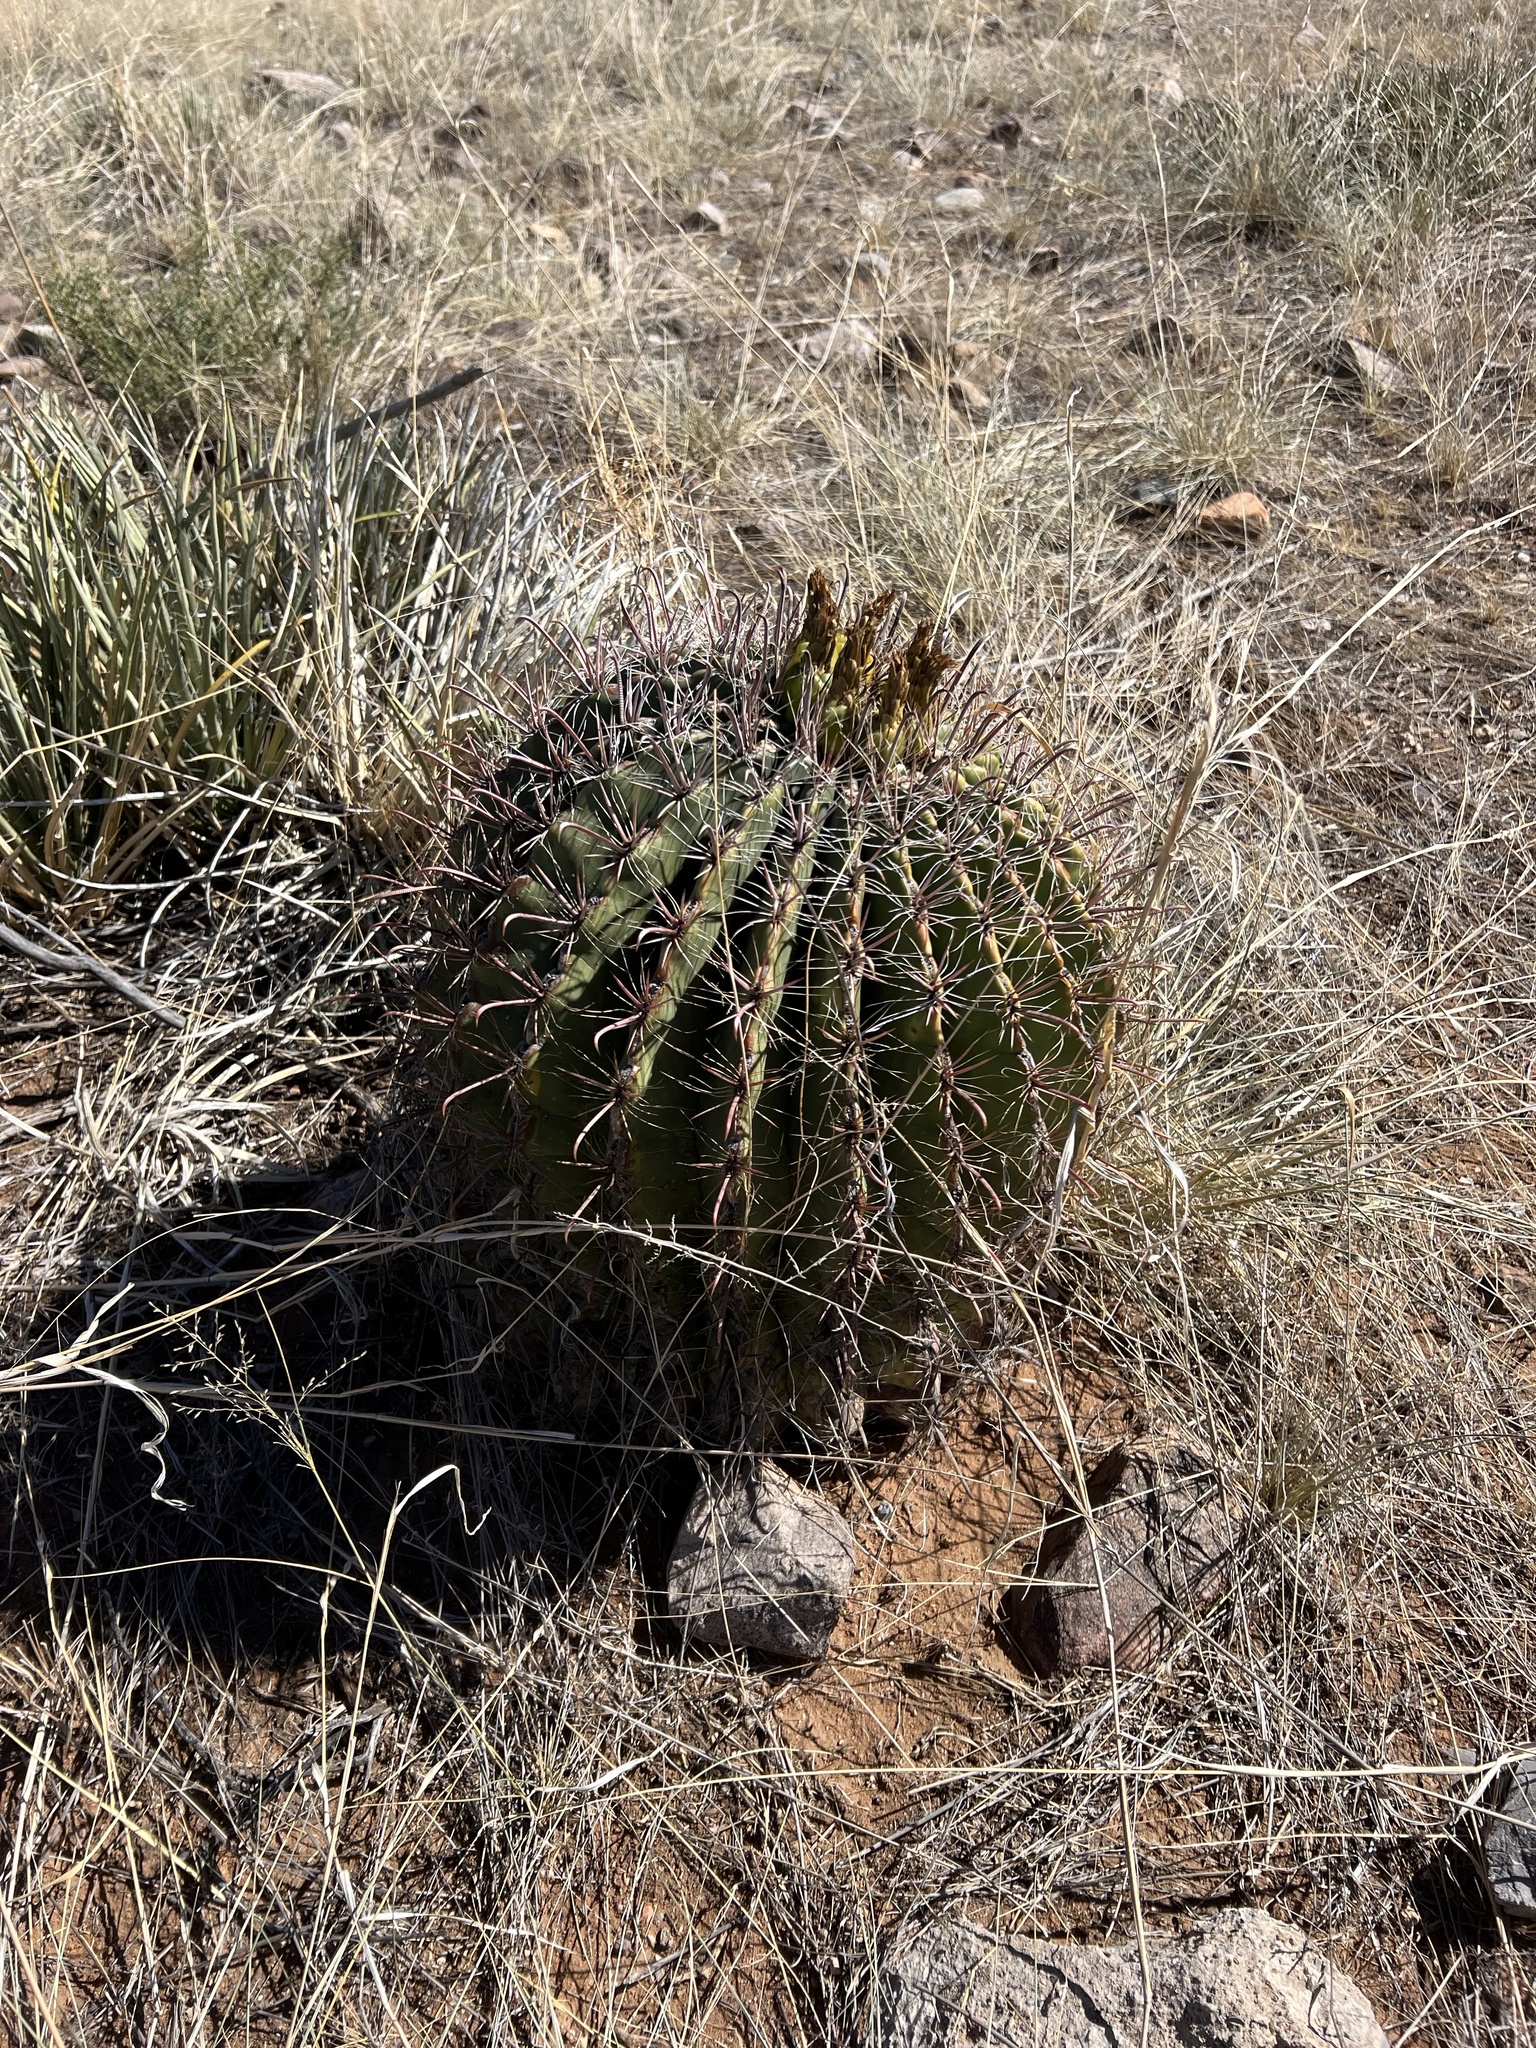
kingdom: Plantae
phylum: Tracheophyta
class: Magnoliopsida
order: Caryophyllales
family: Cactaceae
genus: Ferocactus
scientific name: Ferocactus wislizeni
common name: Candy barrel cactus
